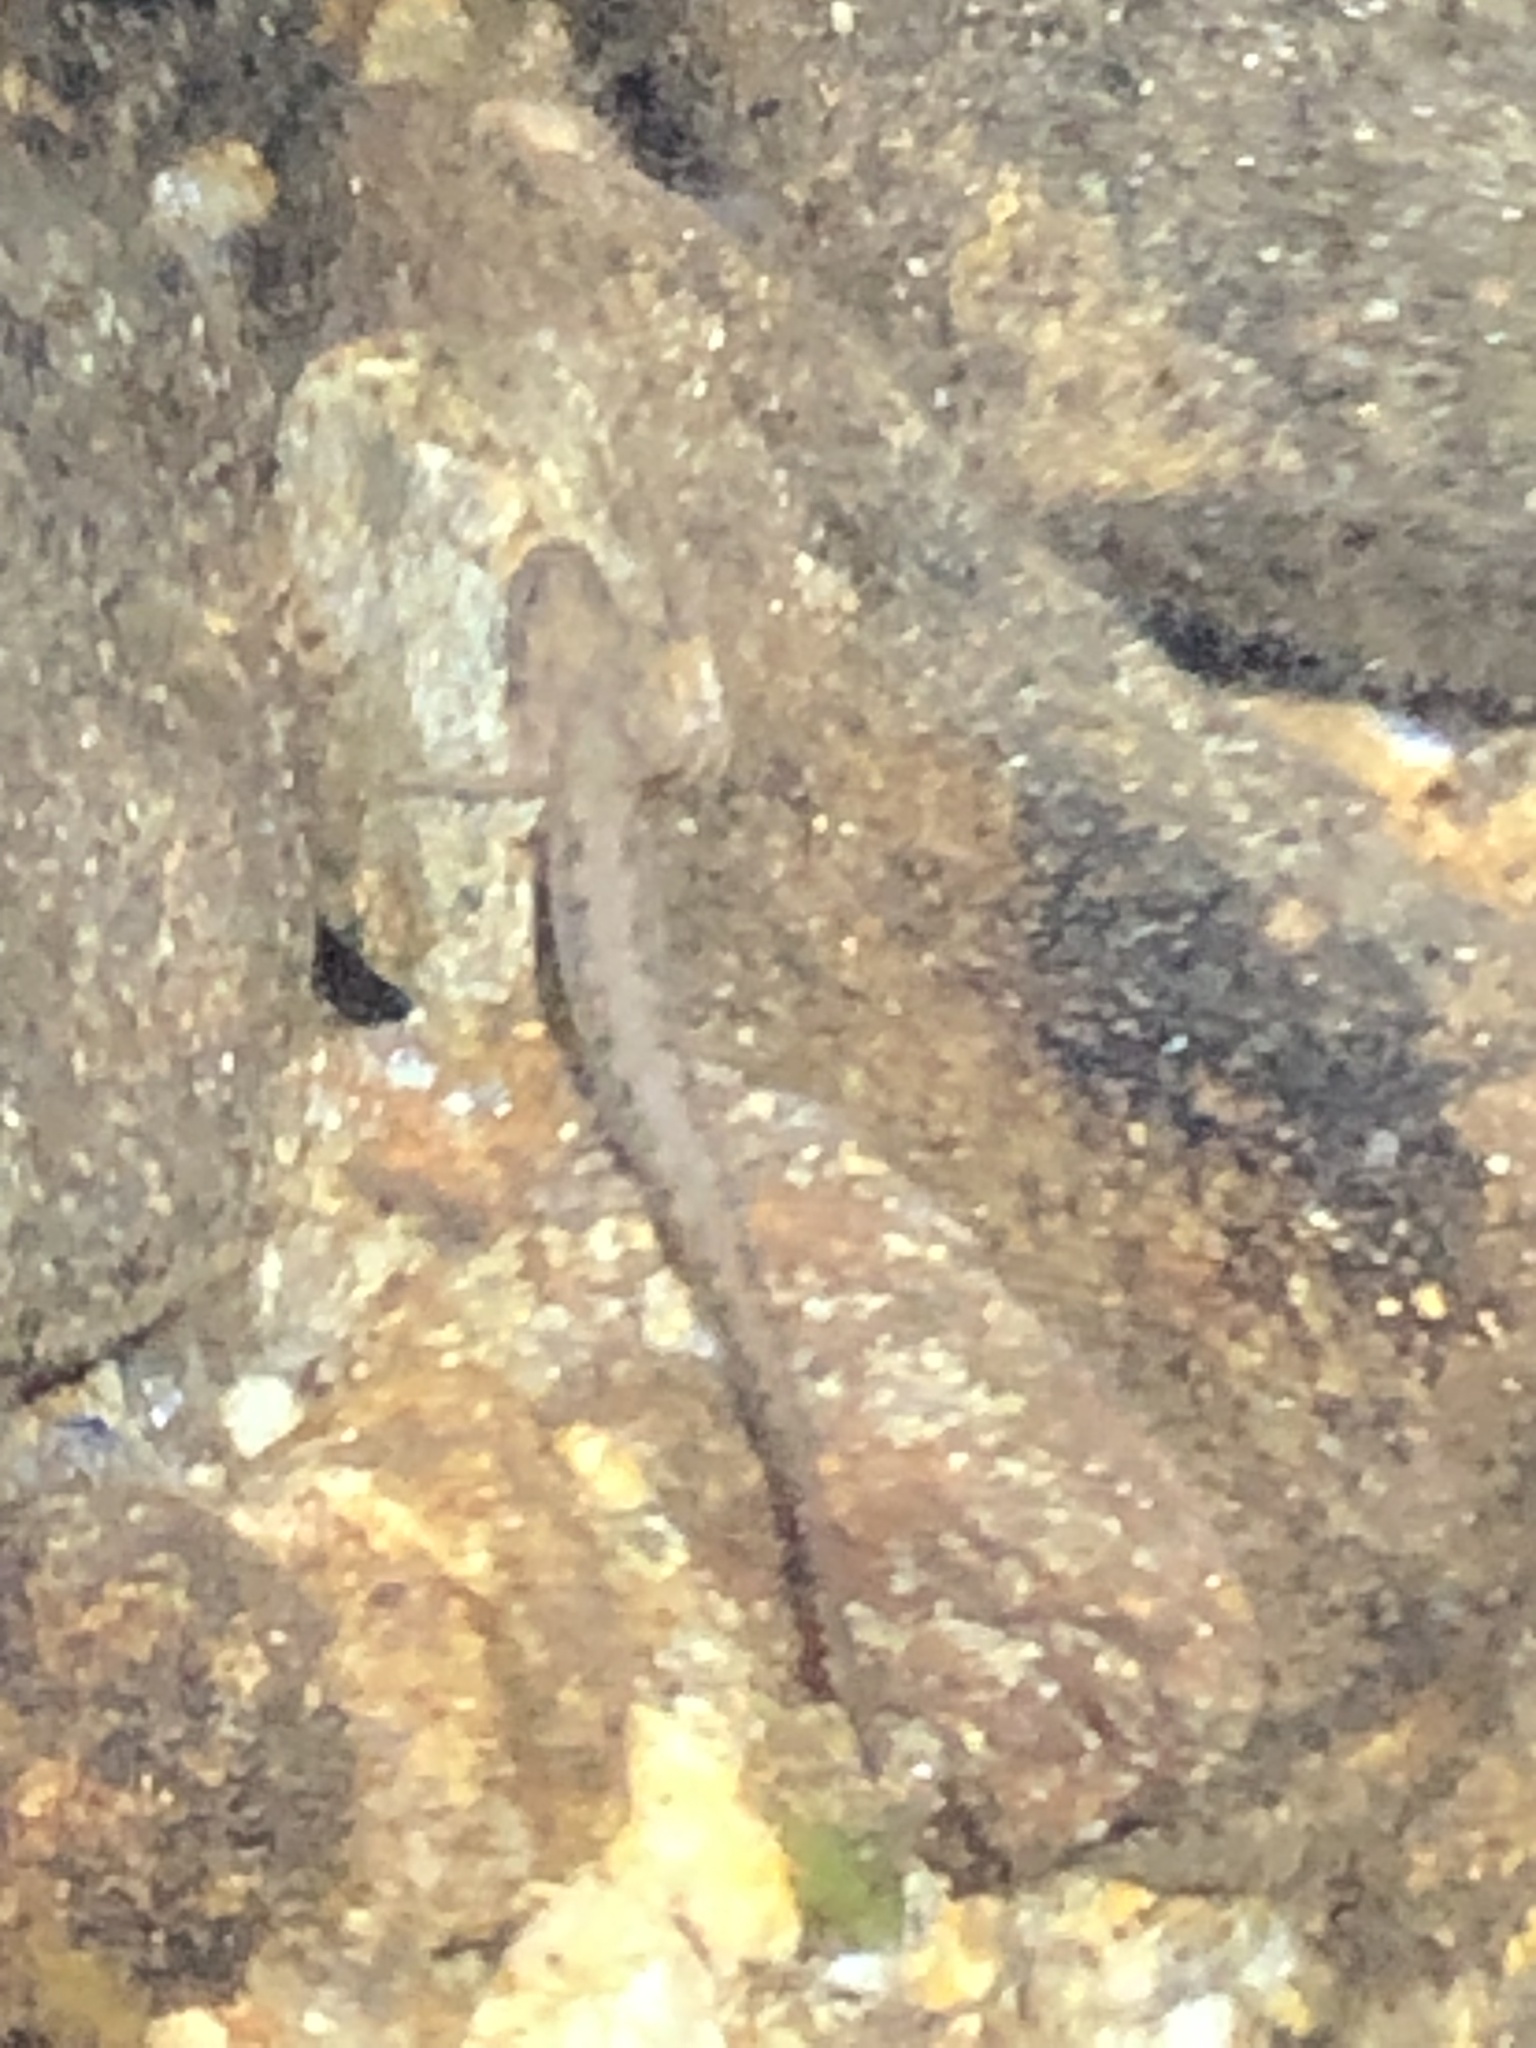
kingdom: Animalia
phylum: Chordata
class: Amphibia
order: Caudata
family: Plethodontidae
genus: Eurycea
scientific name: Eurycea bislineata
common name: Northern two-lined salamander
